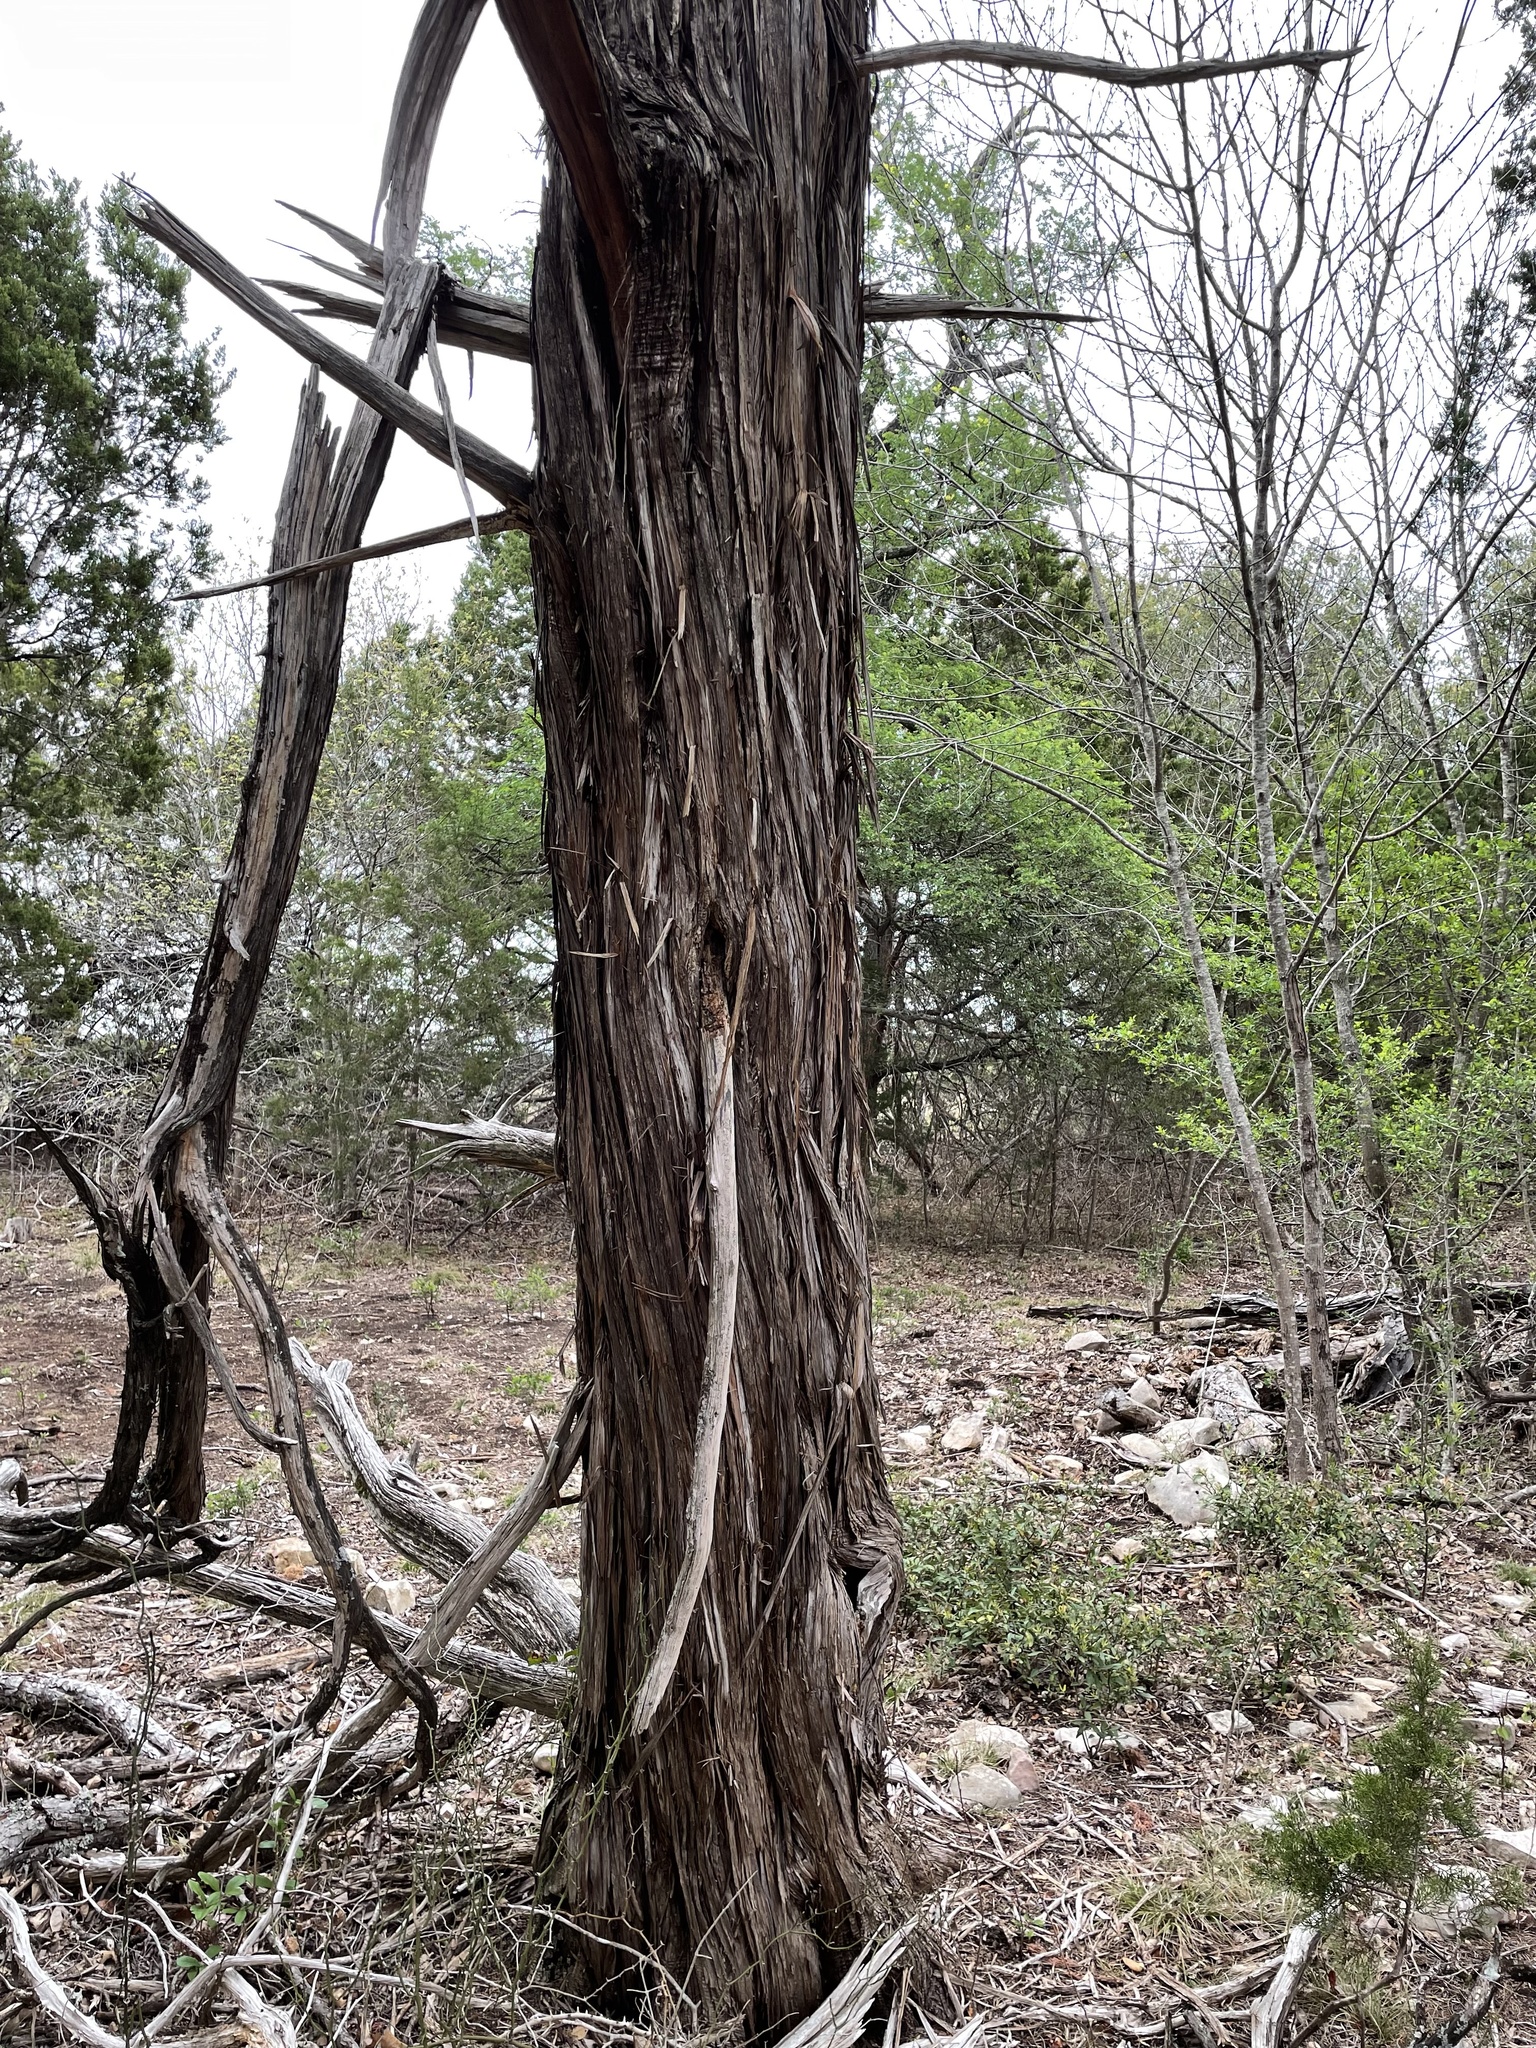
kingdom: Plantae
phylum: Tracheophyta
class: Pinopsida
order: Pinales
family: Cupressaceae
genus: Juniperus
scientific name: Juniperus ashei
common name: Mexican juniper
